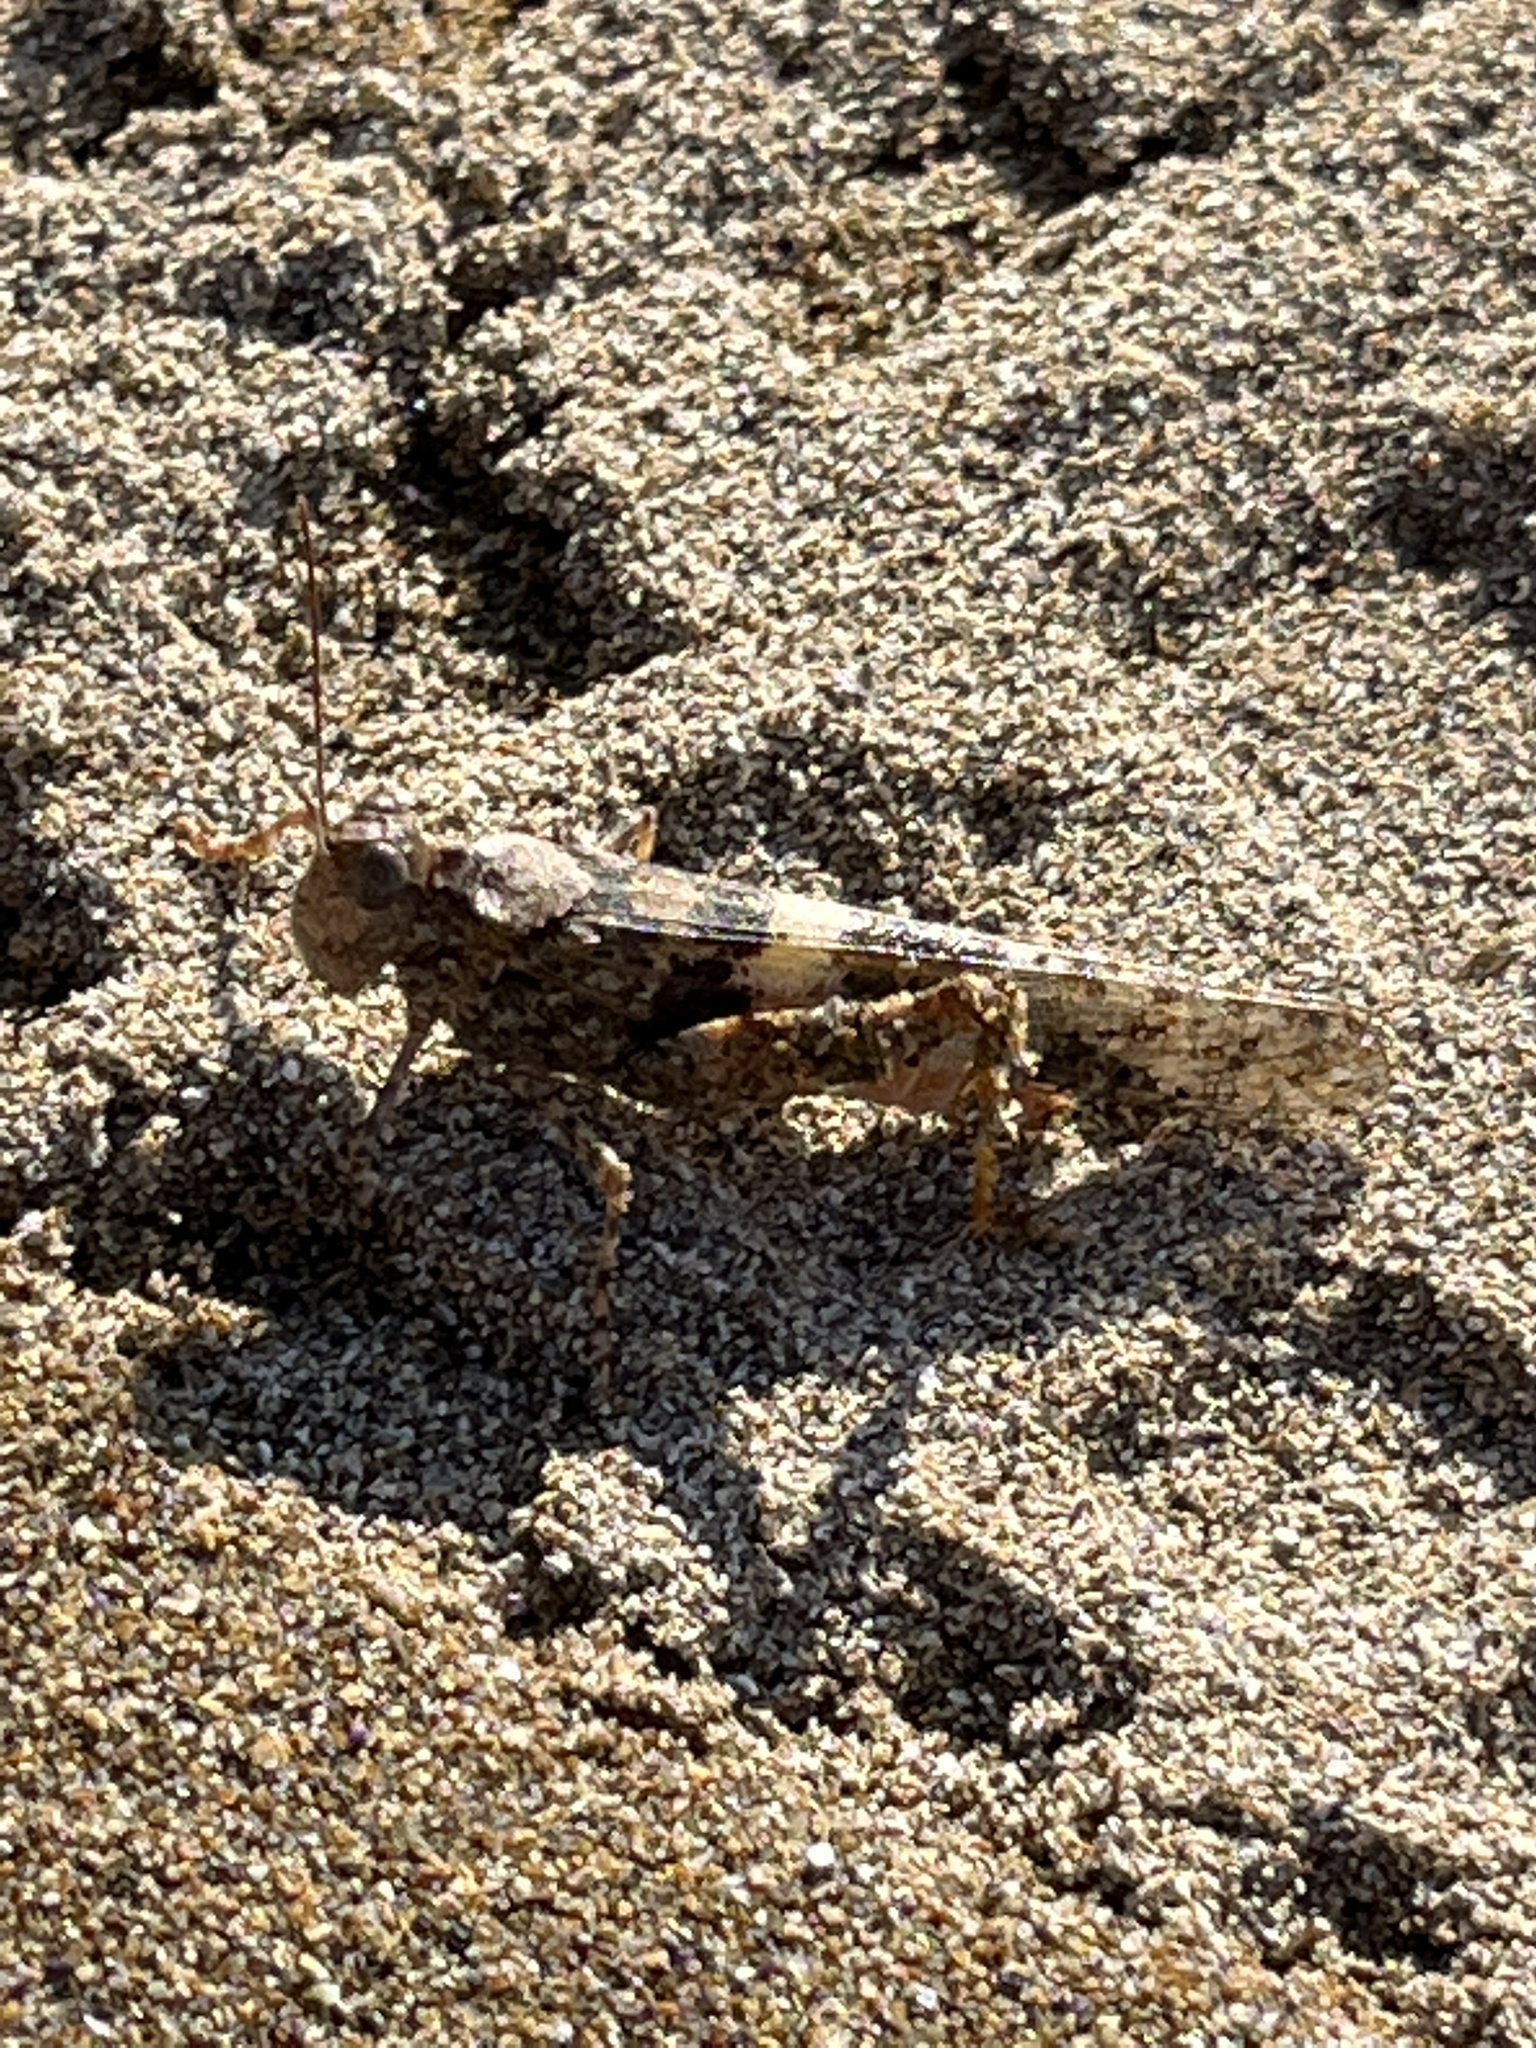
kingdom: Animalia
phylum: Arthropoda
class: Insecta
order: Orthoptera
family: Acrididae
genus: Trimerotropis
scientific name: Trimerotropis pallidipennis
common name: Pallid-winged grasshopper
